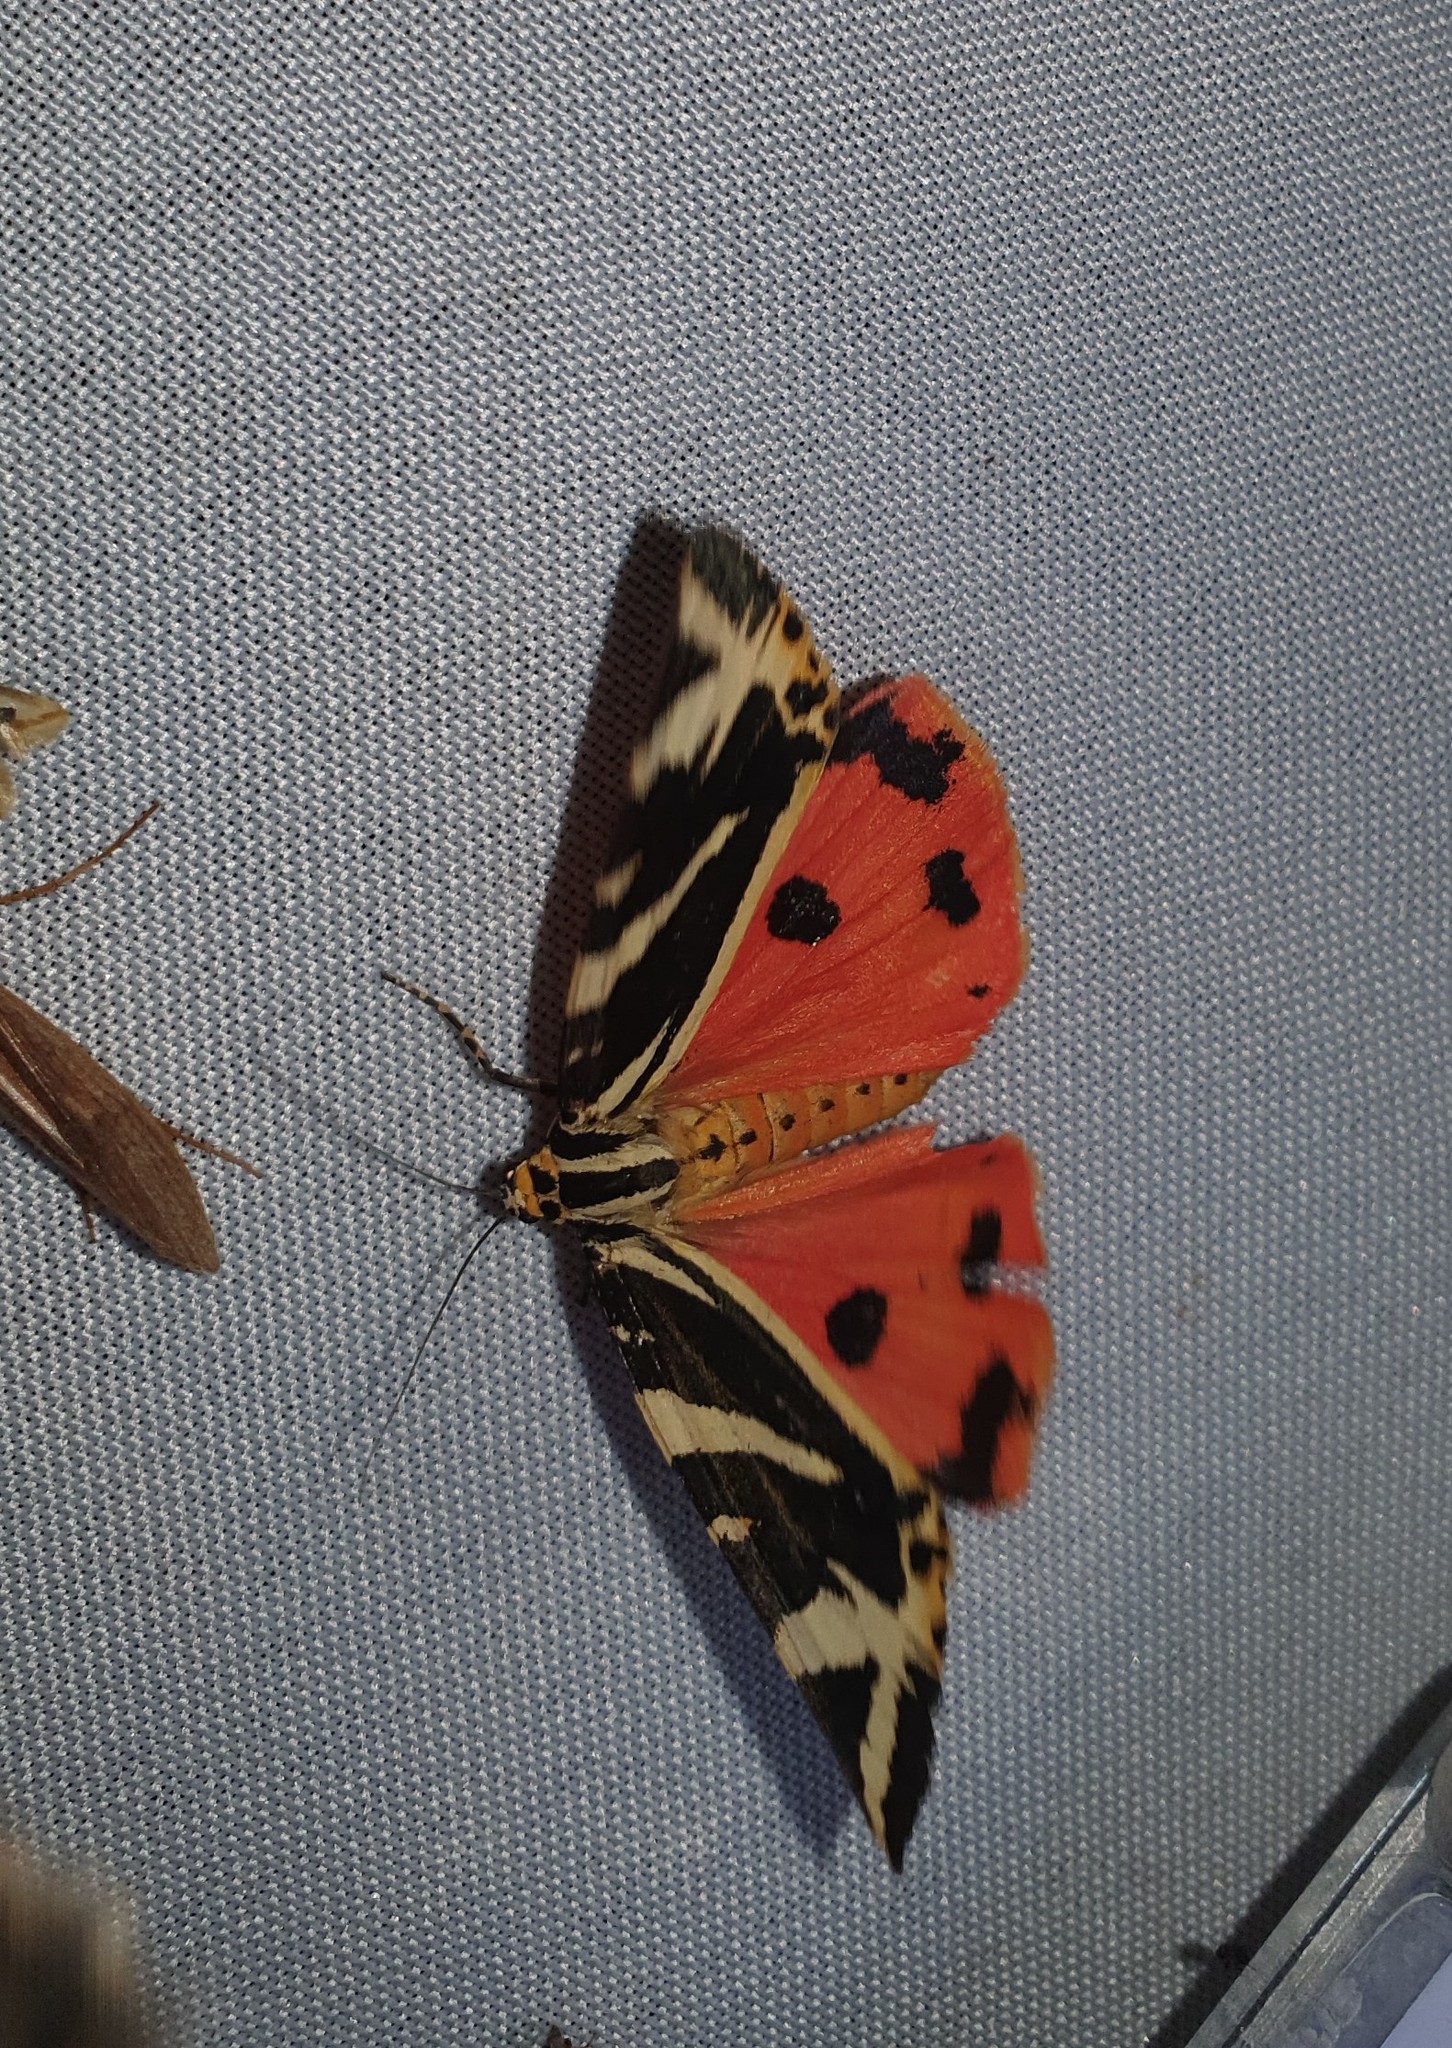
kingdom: Animalia
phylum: Arthropoda
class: Insecta
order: Lepidoptera
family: Erebidae
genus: Euplagia
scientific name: Euplagia quadripunctaria
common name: Jersey tiger
